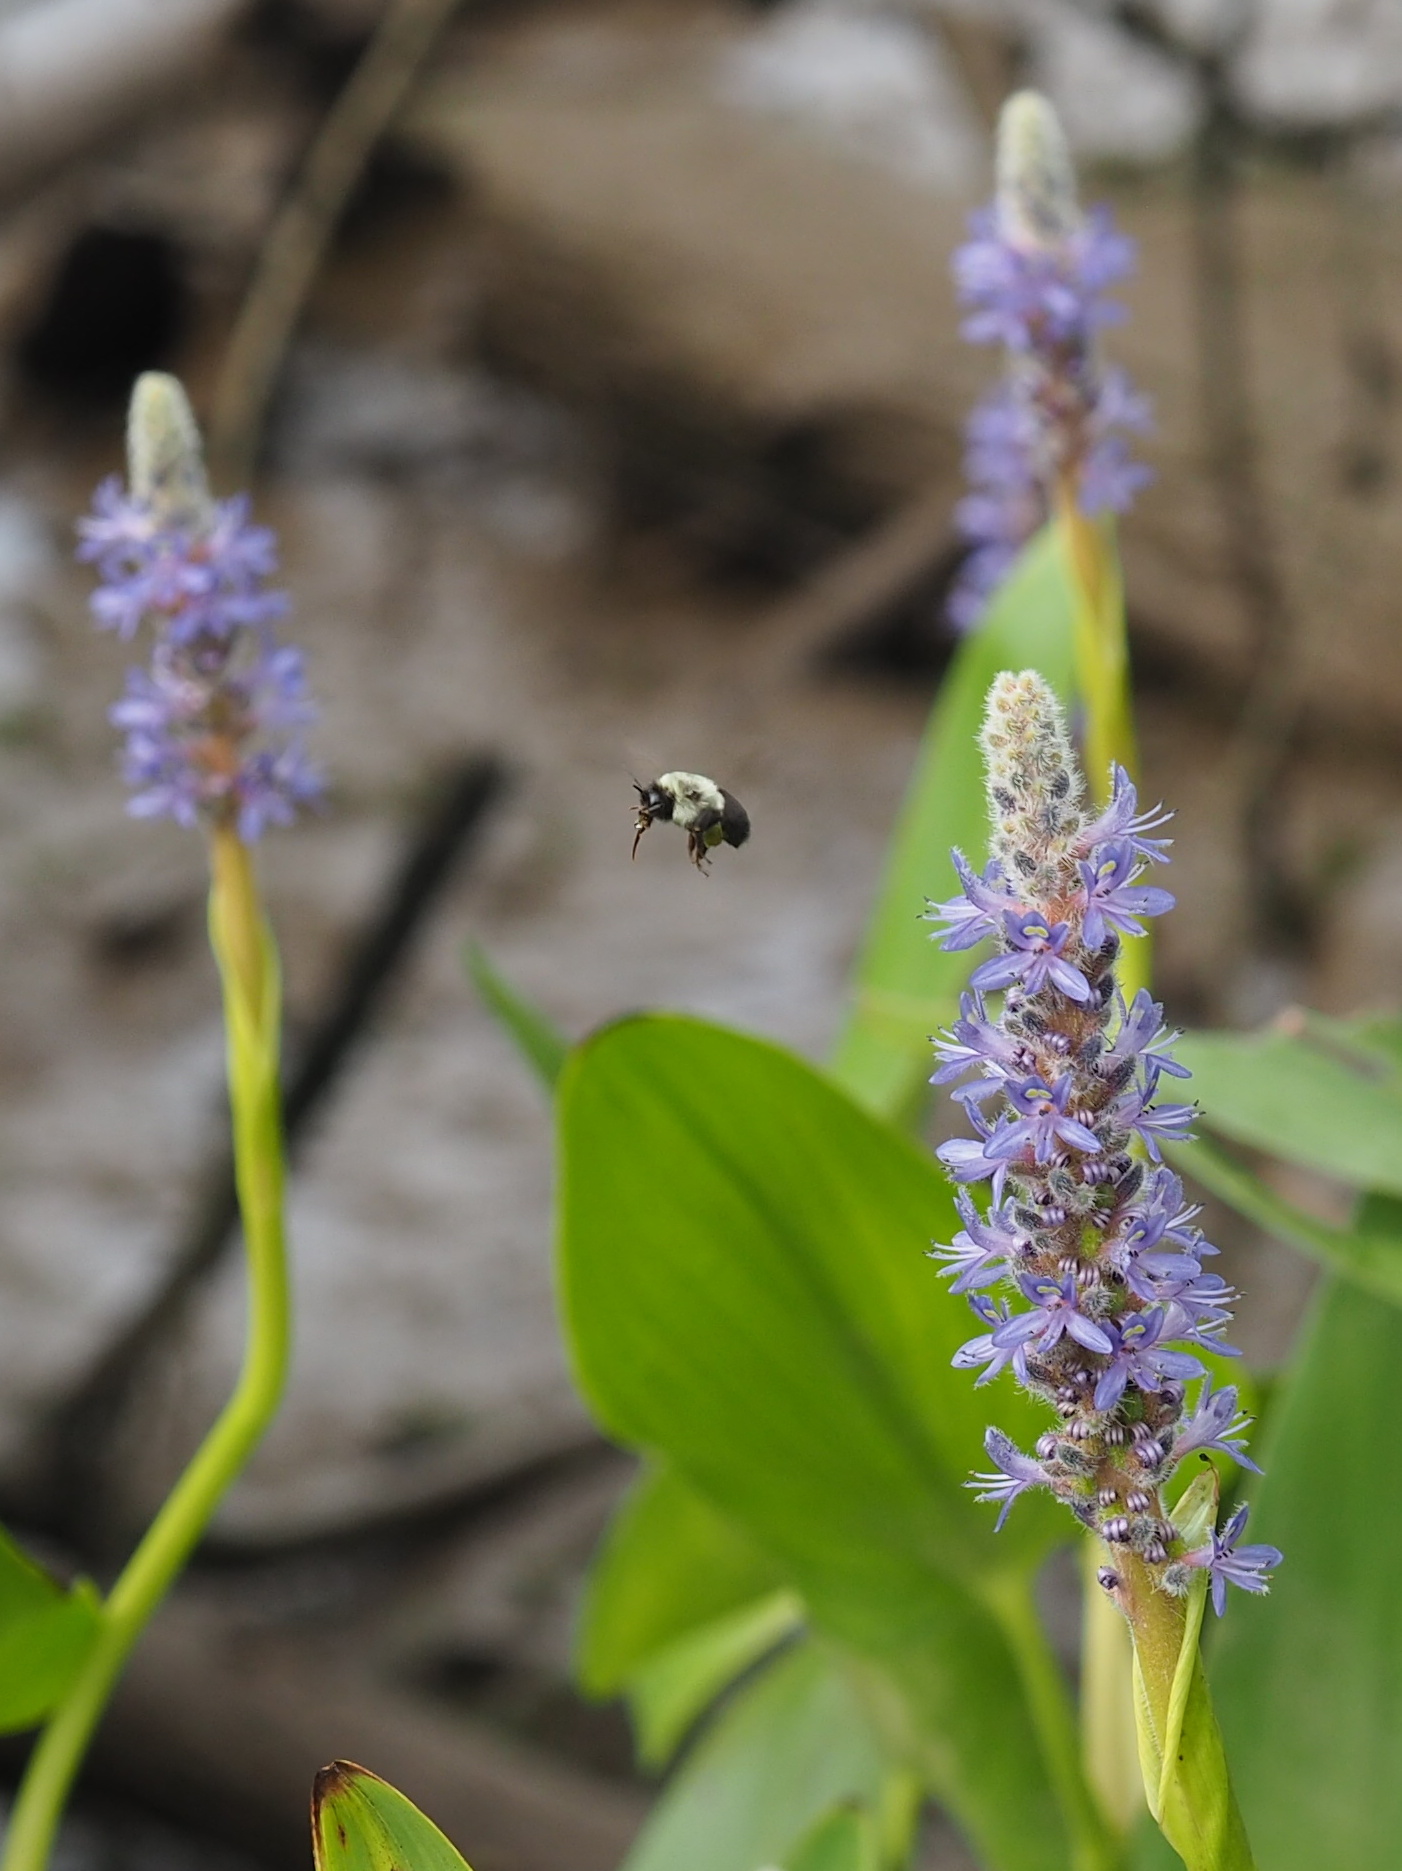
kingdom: Plantae
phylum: Tracheophyta
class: Liliopsida
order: Commelinales
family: Pontederiaceae
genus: Pontederia
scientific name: Pontederia cordata
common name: Pickerelweed
